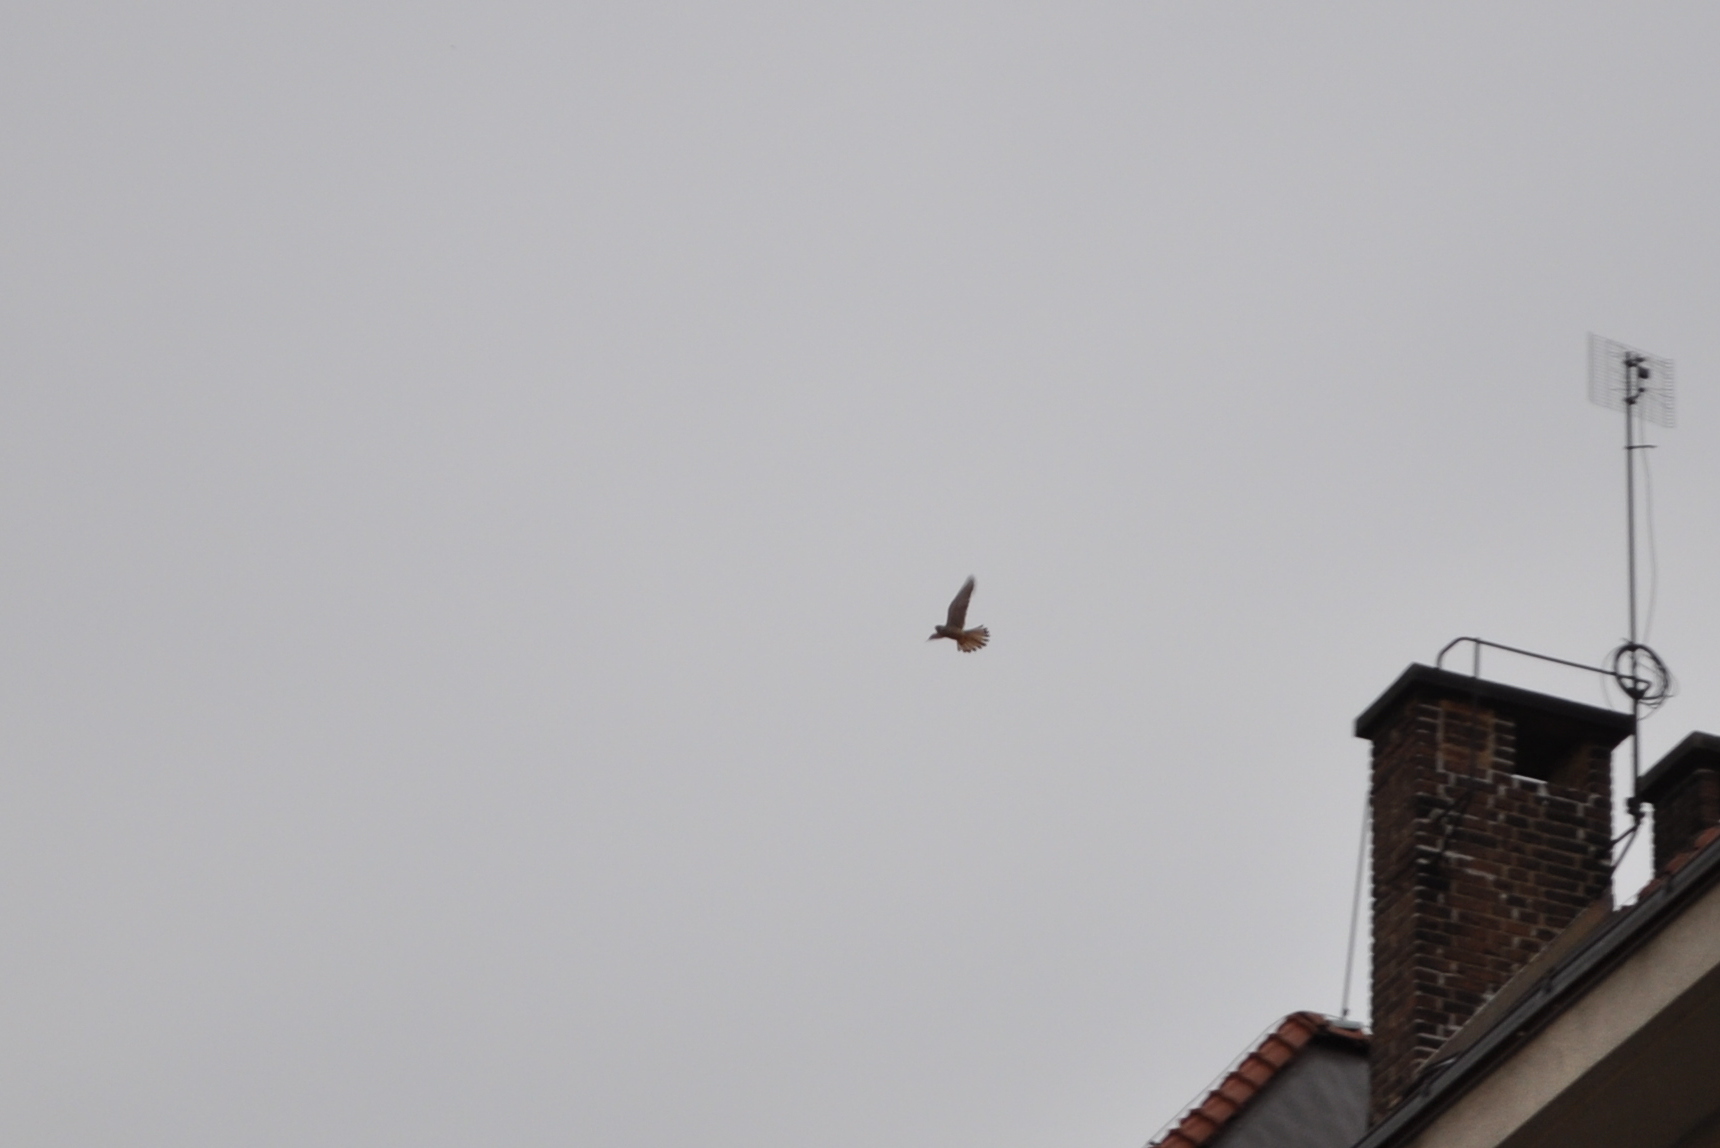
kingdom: Animalia
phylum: Chordata
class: Aves
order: Falconiformes
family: Falconidae
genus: Falco
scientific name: Falco tinnunculus
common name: Common kestrel
